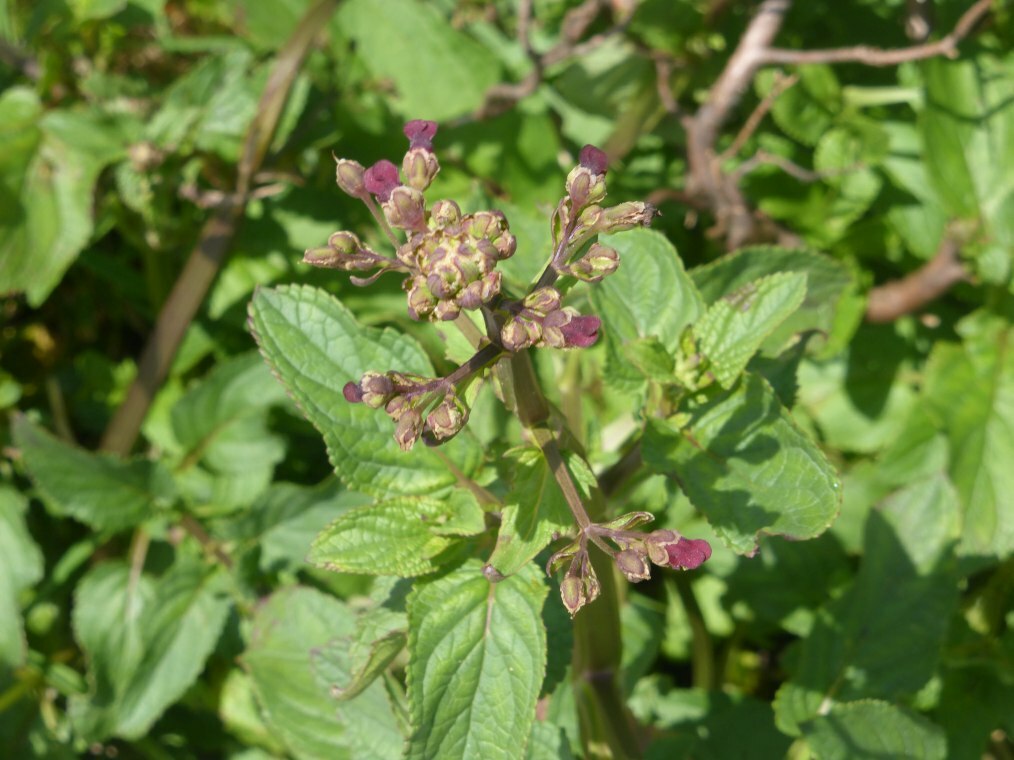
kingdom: Plantae
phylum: Tracheophyta
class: Magnoliopsida
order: Lamiales
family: Scrophulariaceae
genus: Scrophularia
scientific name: Scrophularia auriculata
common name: Water betony
